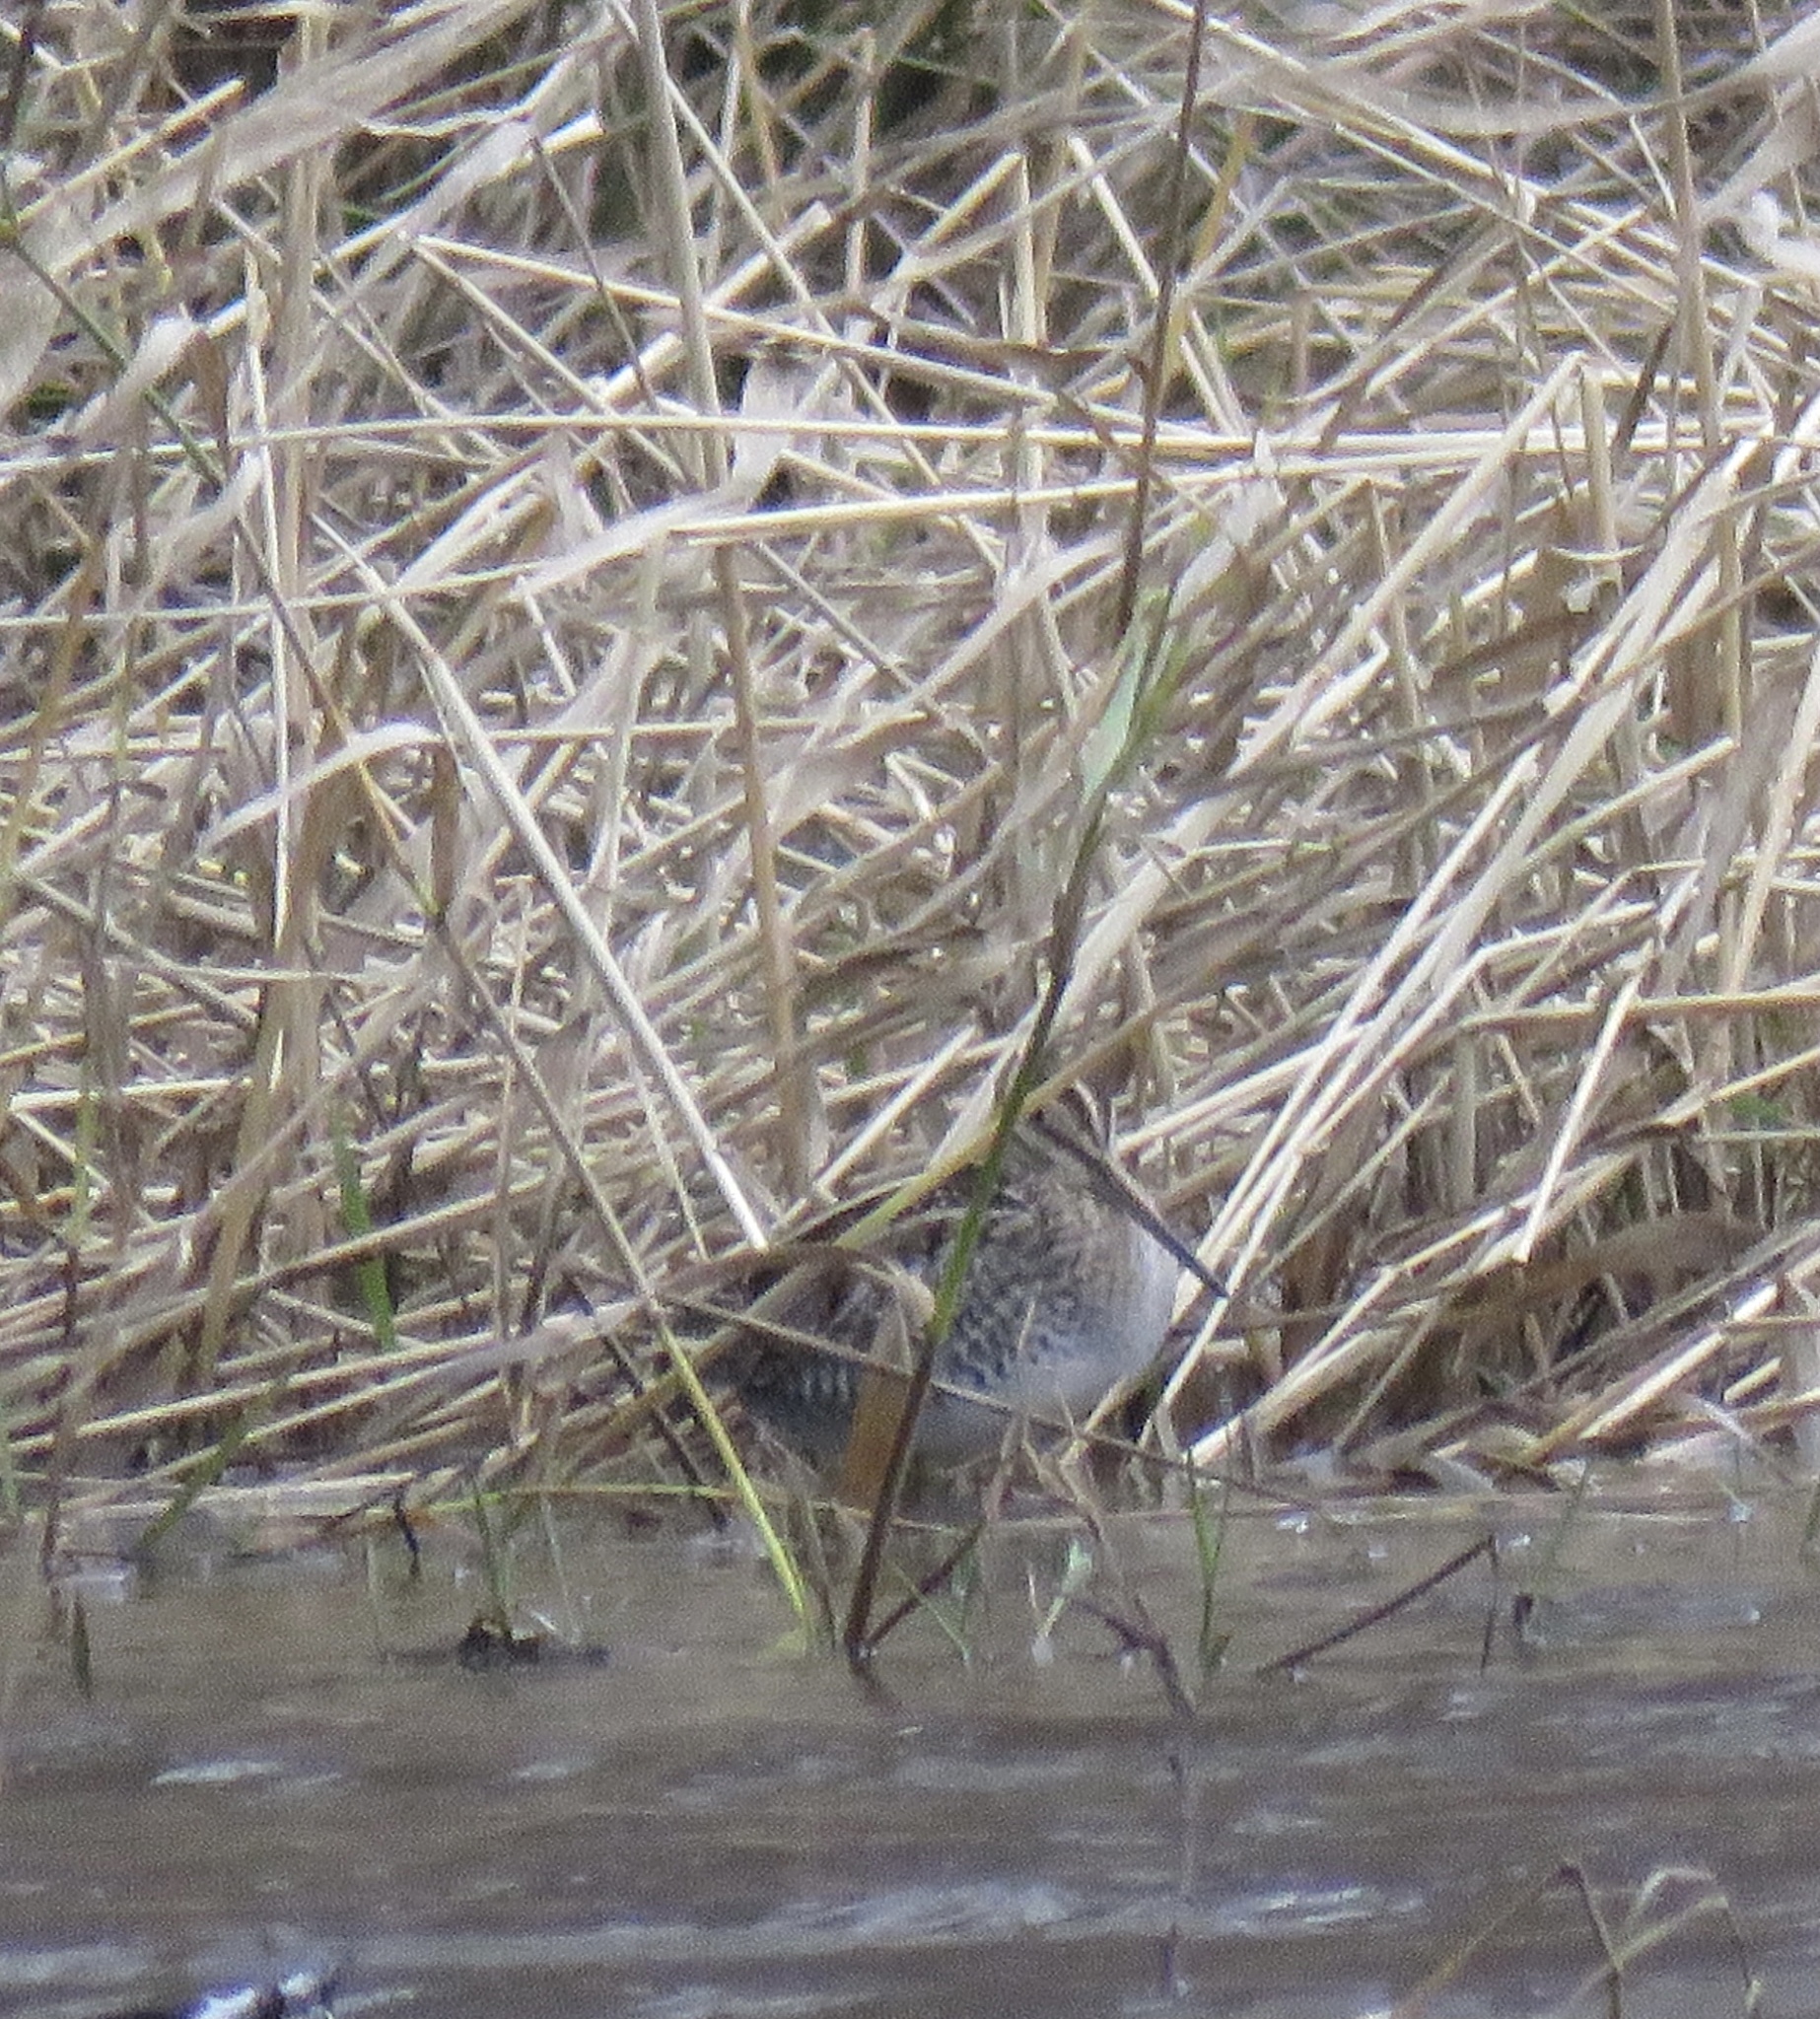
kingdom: Animalia
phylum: Chordata
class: Aves
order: Charadriiformes
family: Scolopacidae
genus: Gallinago
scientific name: Gallinago delicata
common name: Wilson's snipe
